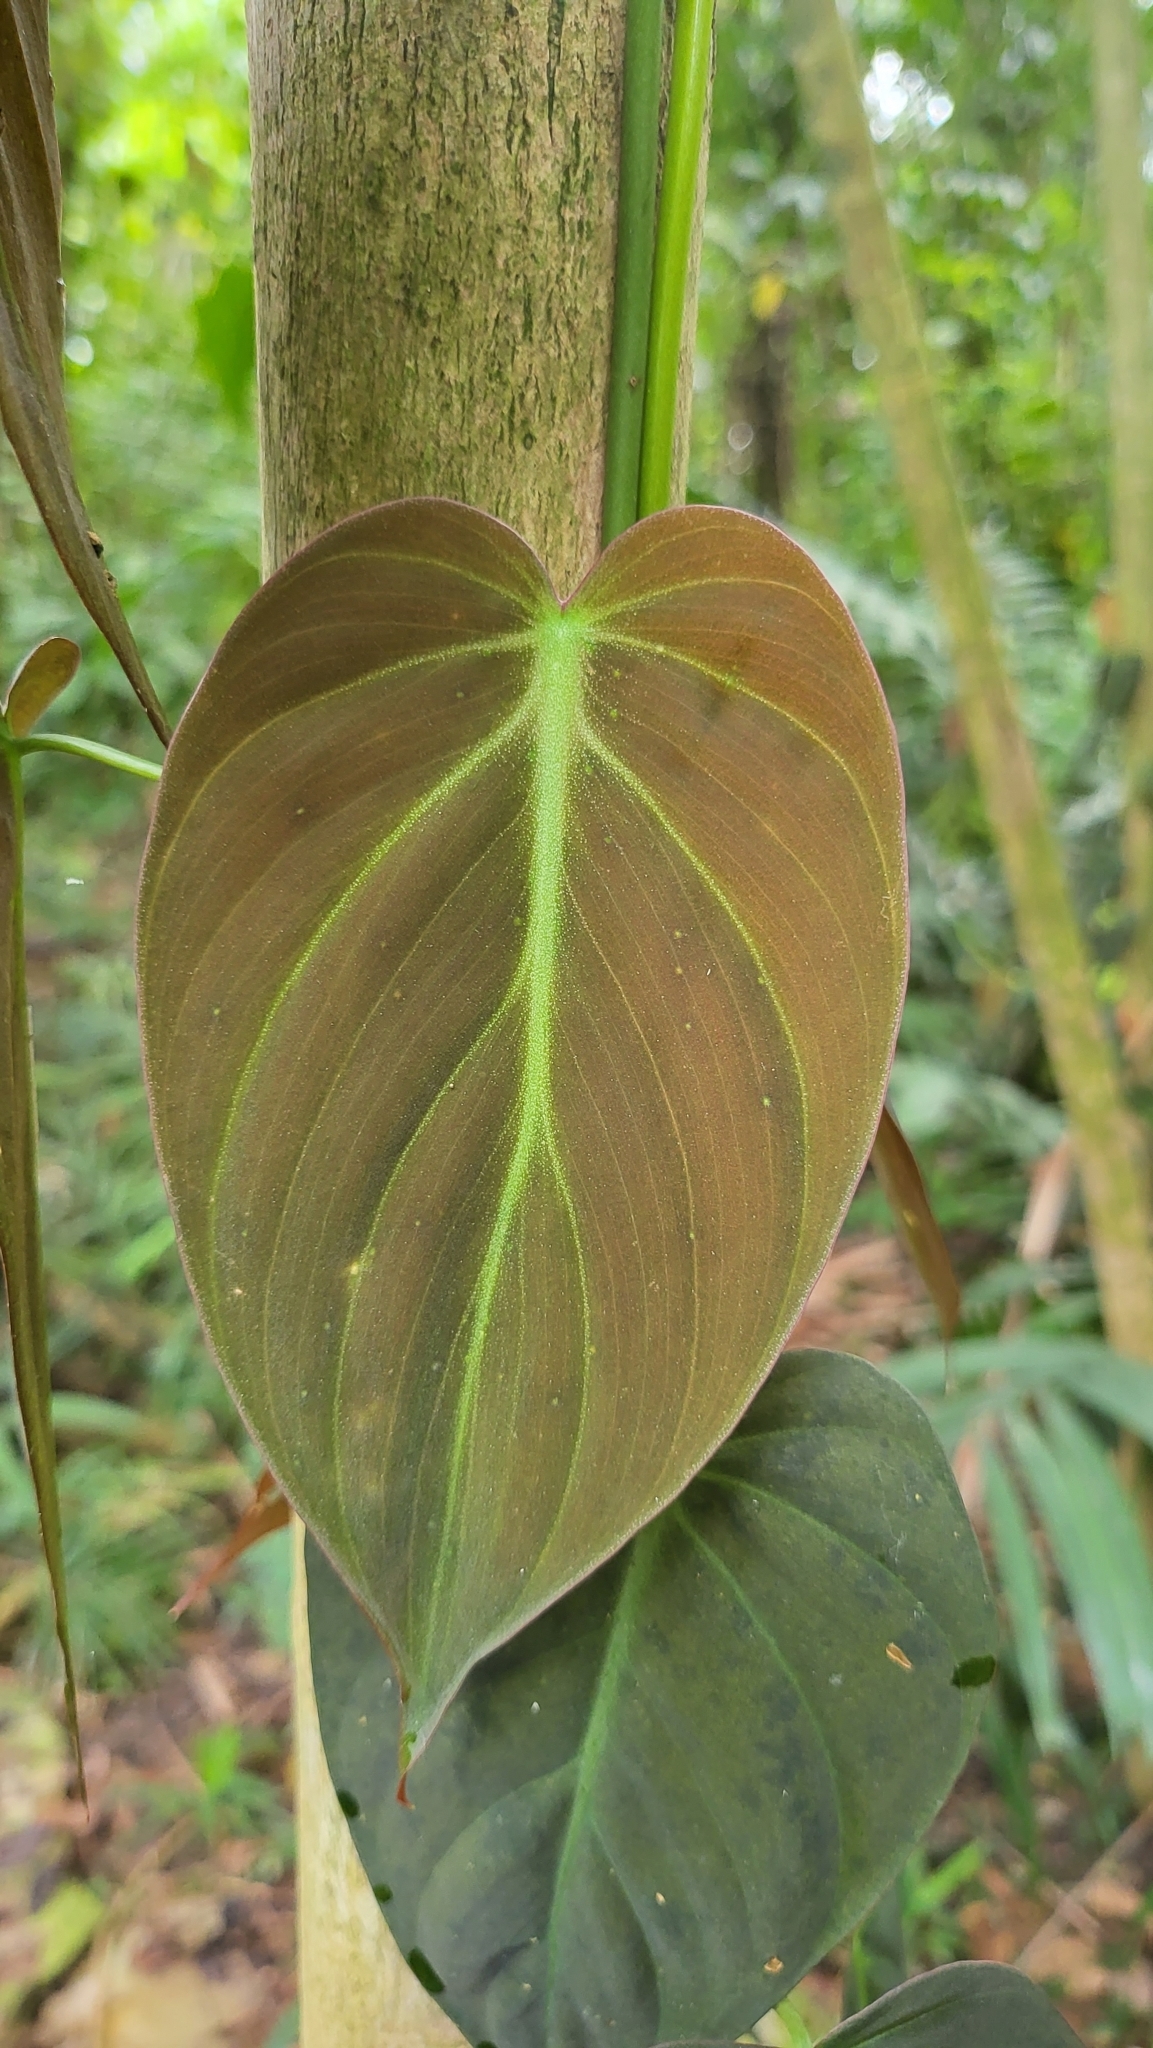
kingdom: Plantae
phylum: Tracheophyta
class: Liliopsida
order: Alismatales
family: Araceae
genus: Philodendron
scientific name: Philodendron hederaceum
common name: Vilevine
